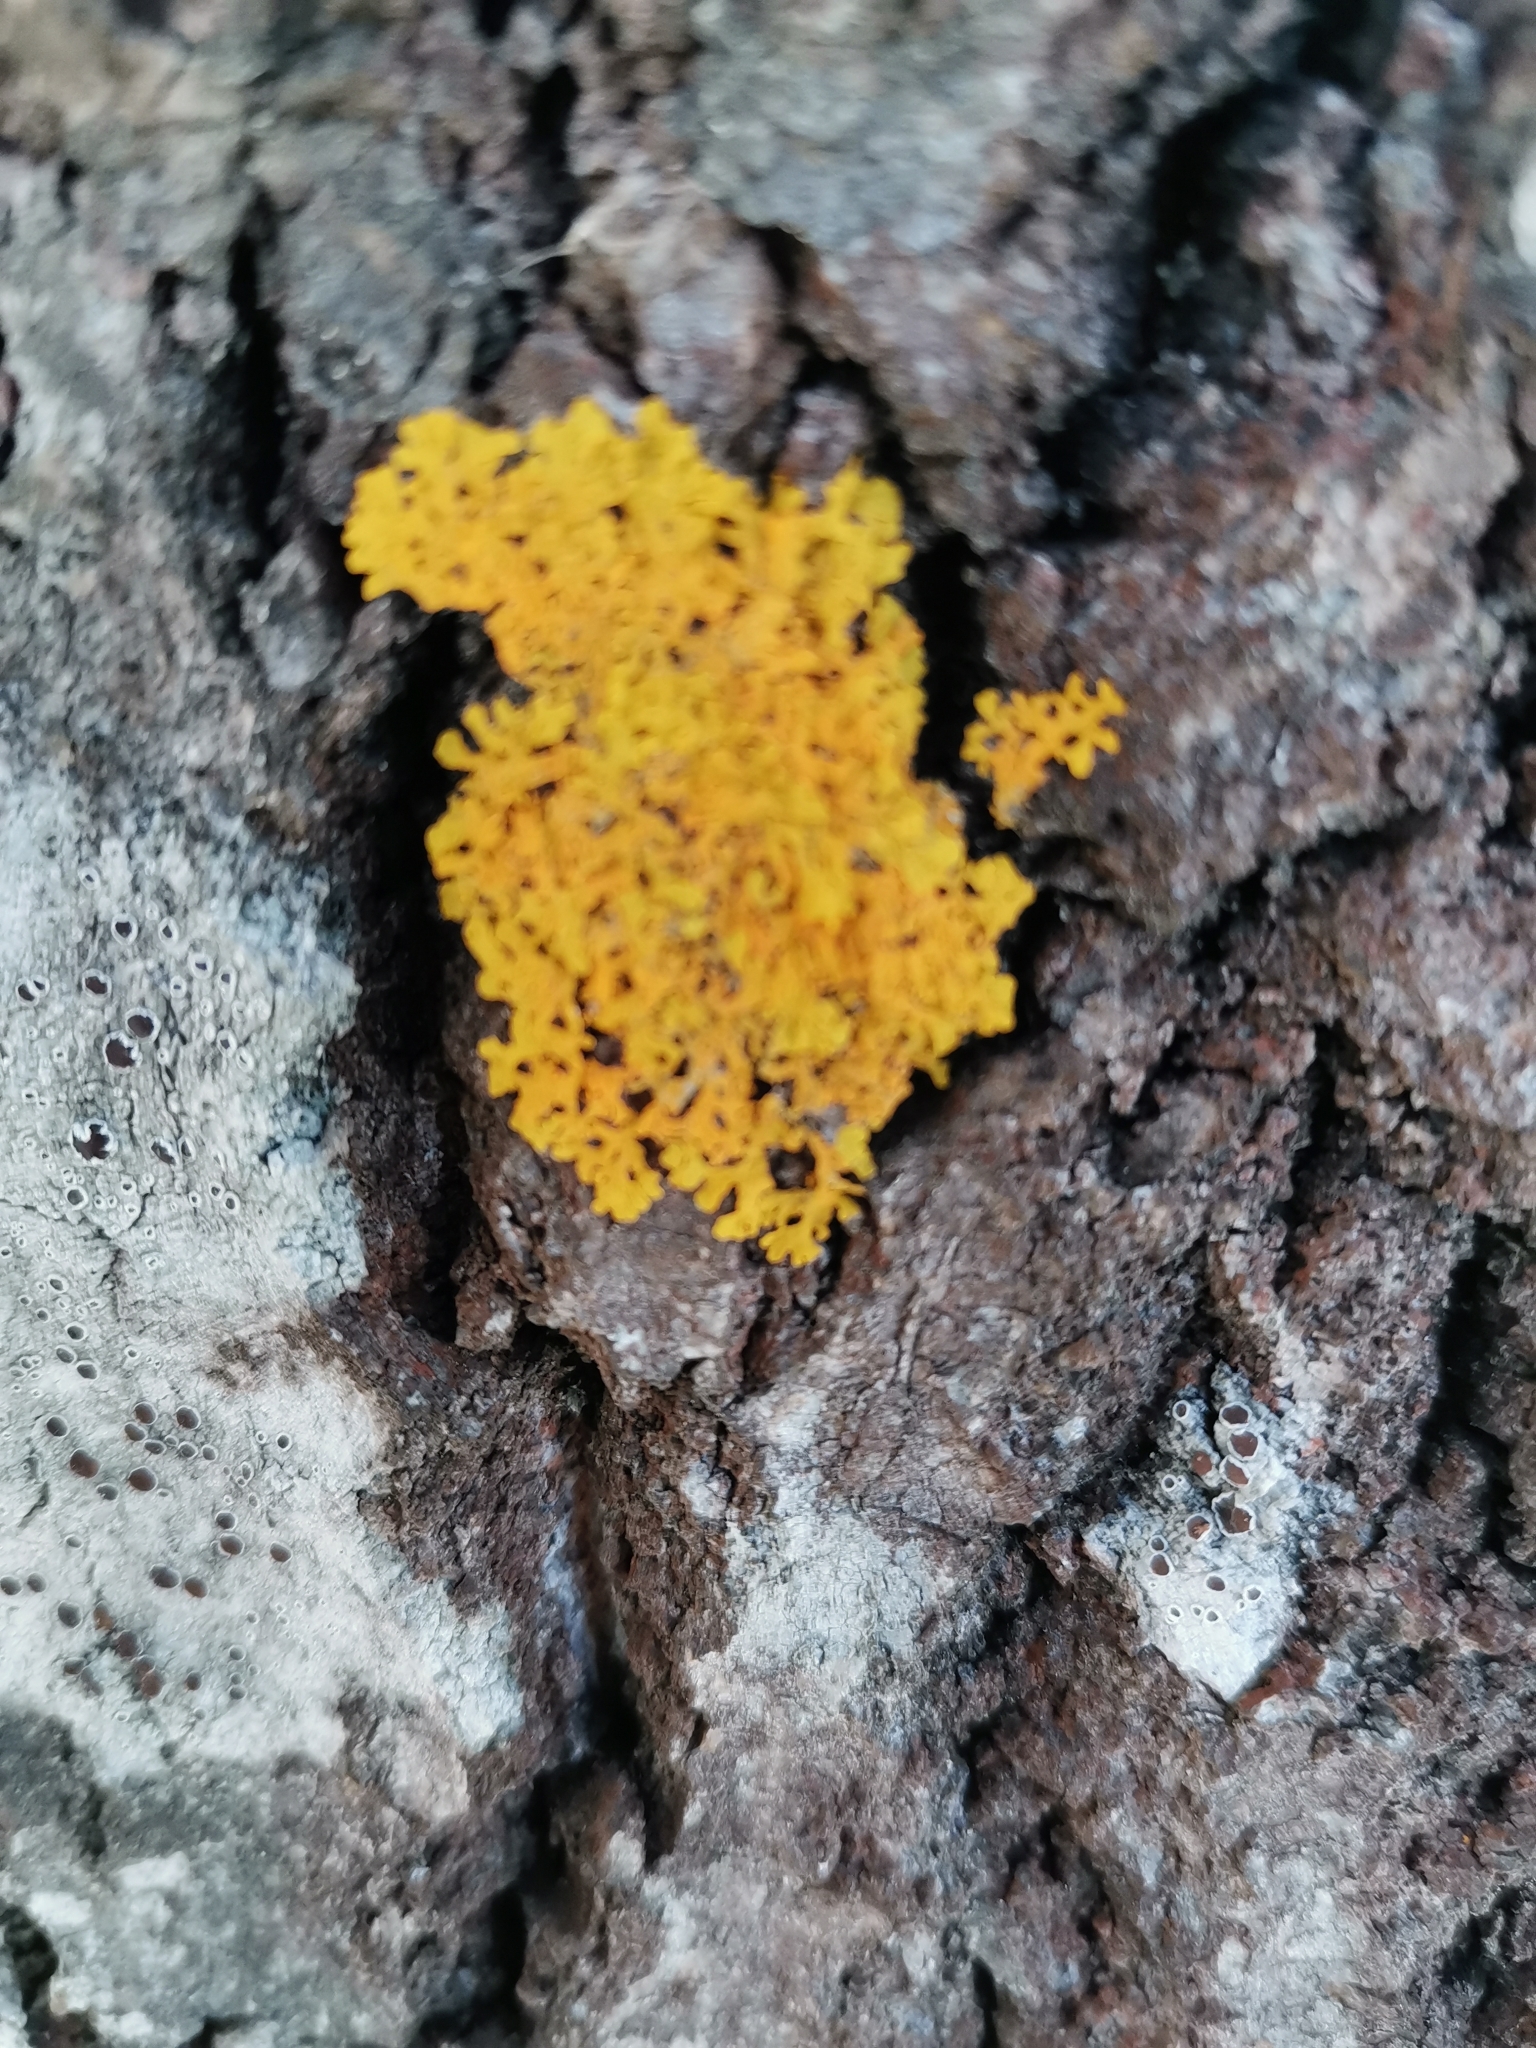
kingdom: Fungi
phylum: Ascomycota
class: Lecanoromycetes
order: Teloschistales
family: Teloschistaceae
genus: Xanthoria
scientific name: Xanthoria parietina
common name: Common orange lichen
